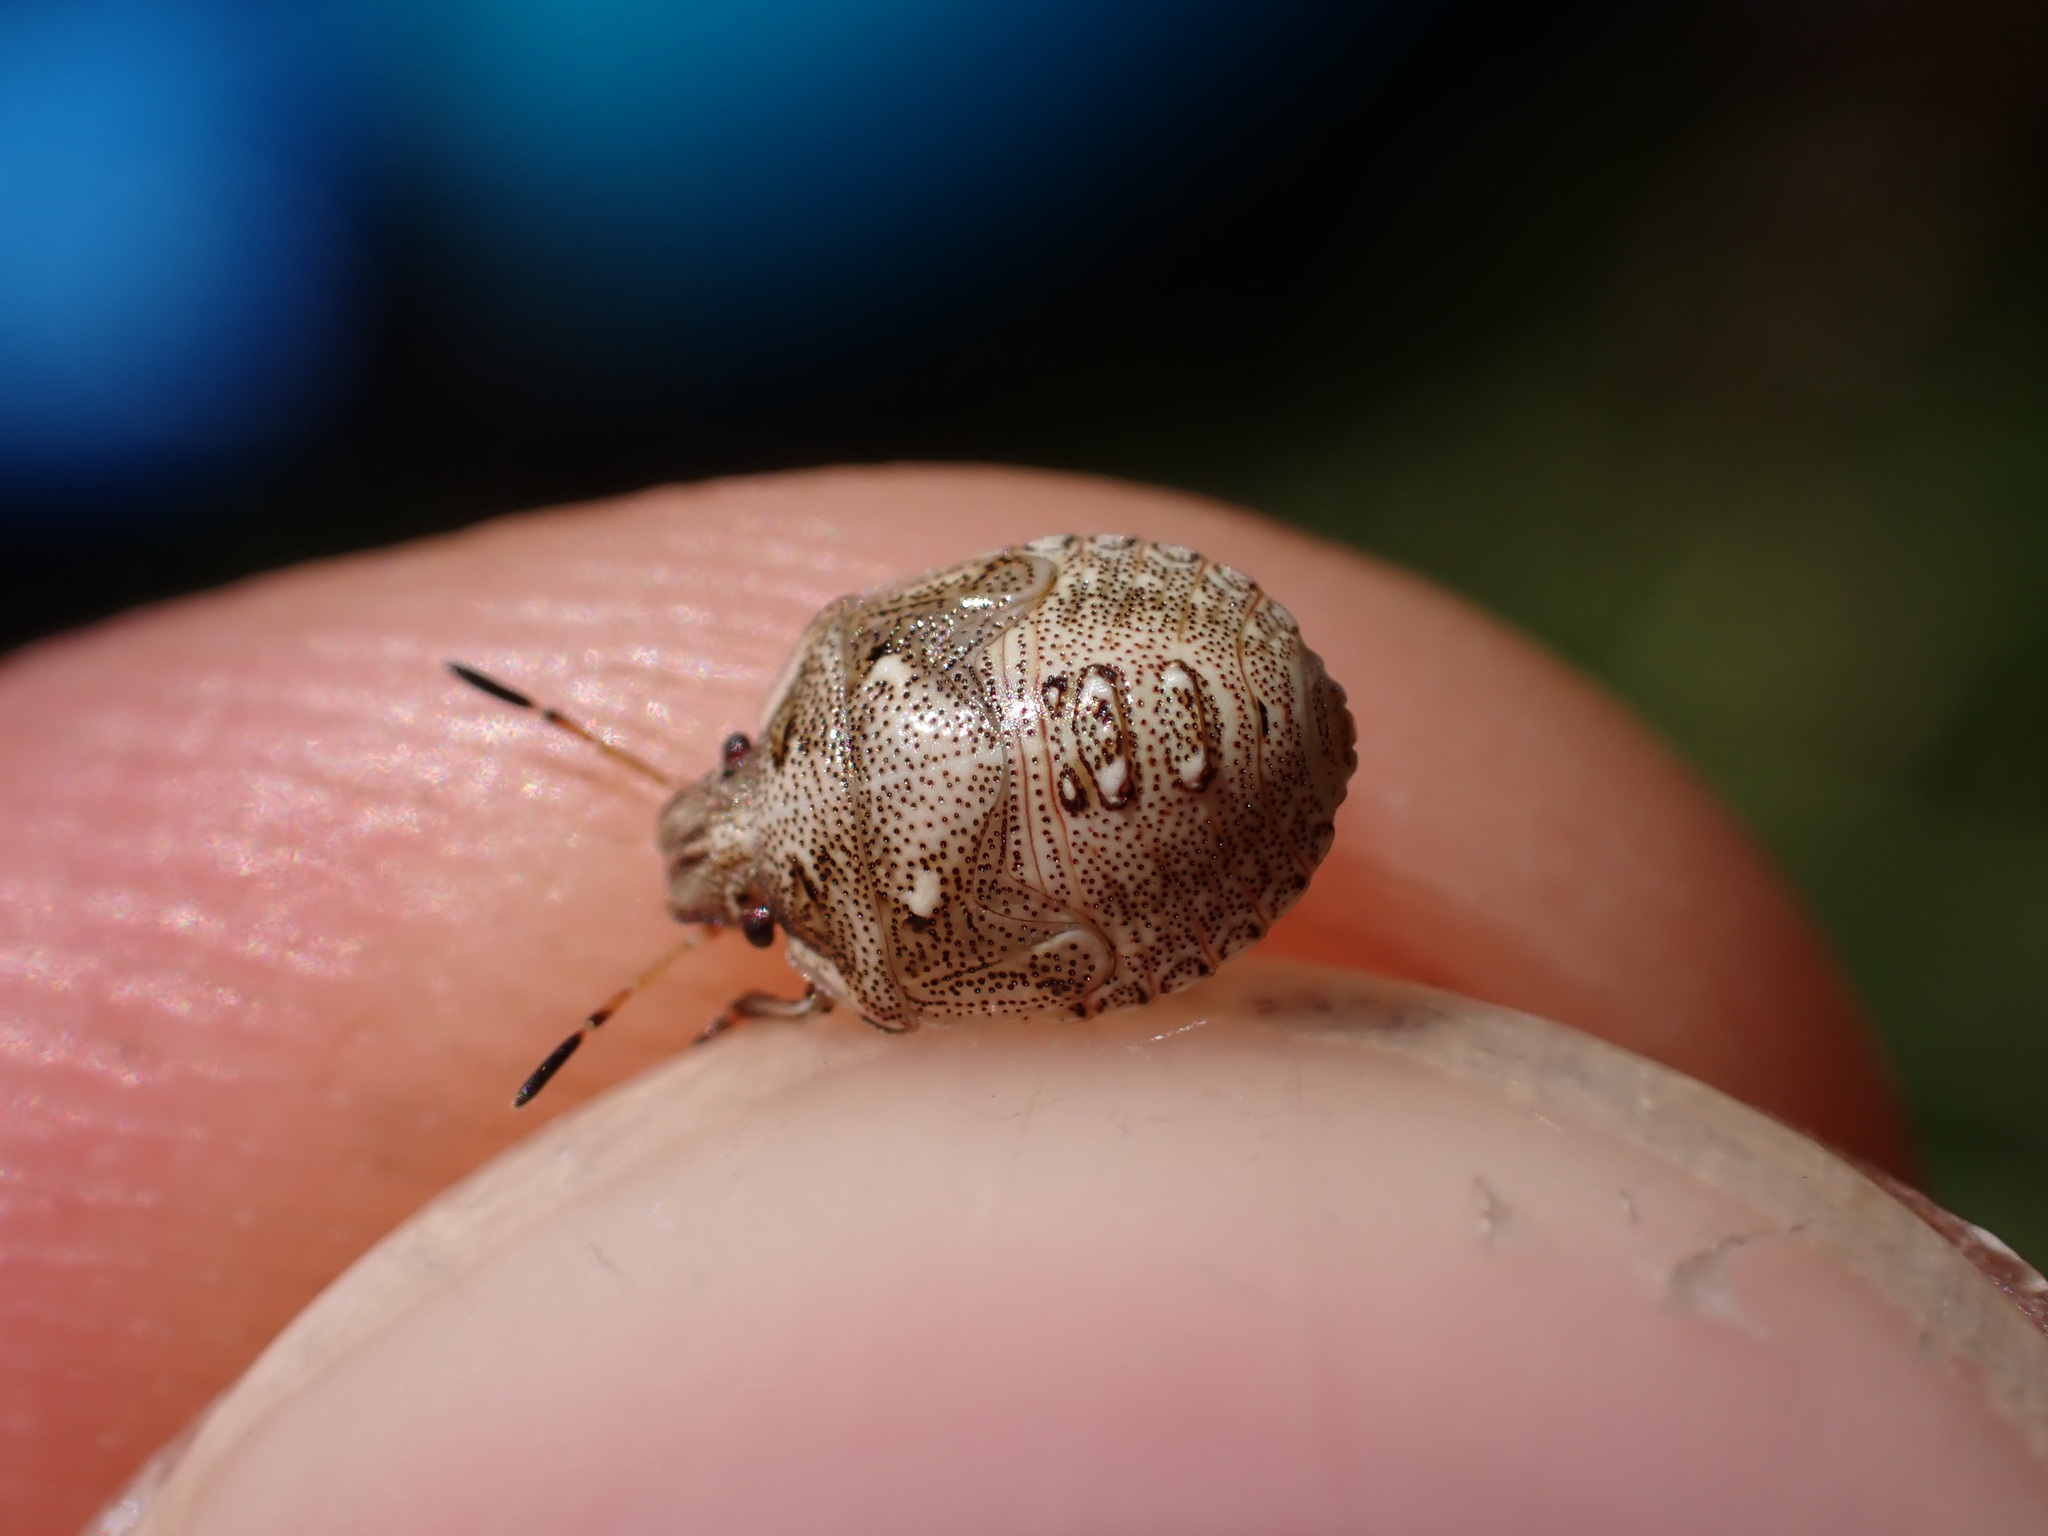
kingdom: Animalia
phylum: Arthropoda
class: Insecta
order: Hemiptera
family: Pentatomidae
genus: Eysarcoris
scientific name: Eysarcoris aeneus
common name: New forest shieldbug
